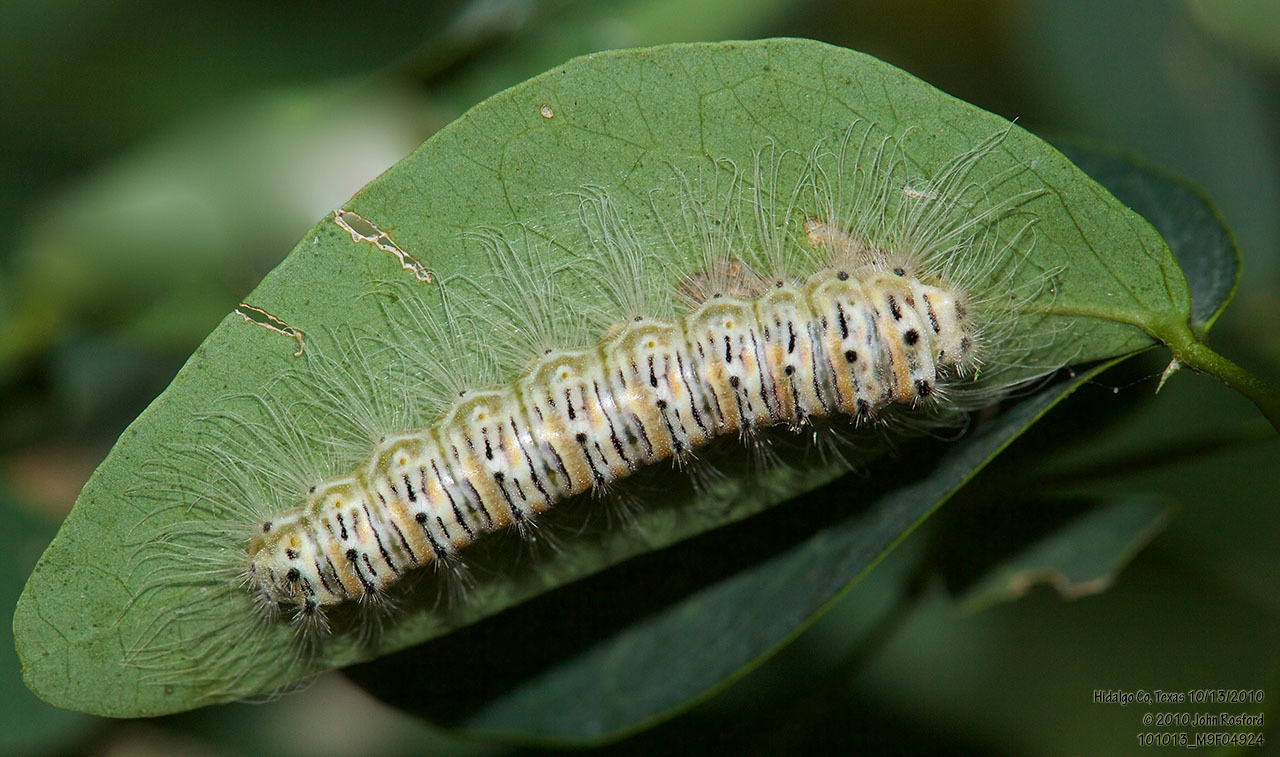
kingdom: Animalia
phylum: Arthropoda
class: Insecta
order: Lepidoptera
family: Lycaenidae
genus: Melanis
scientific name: Melanis pixe
